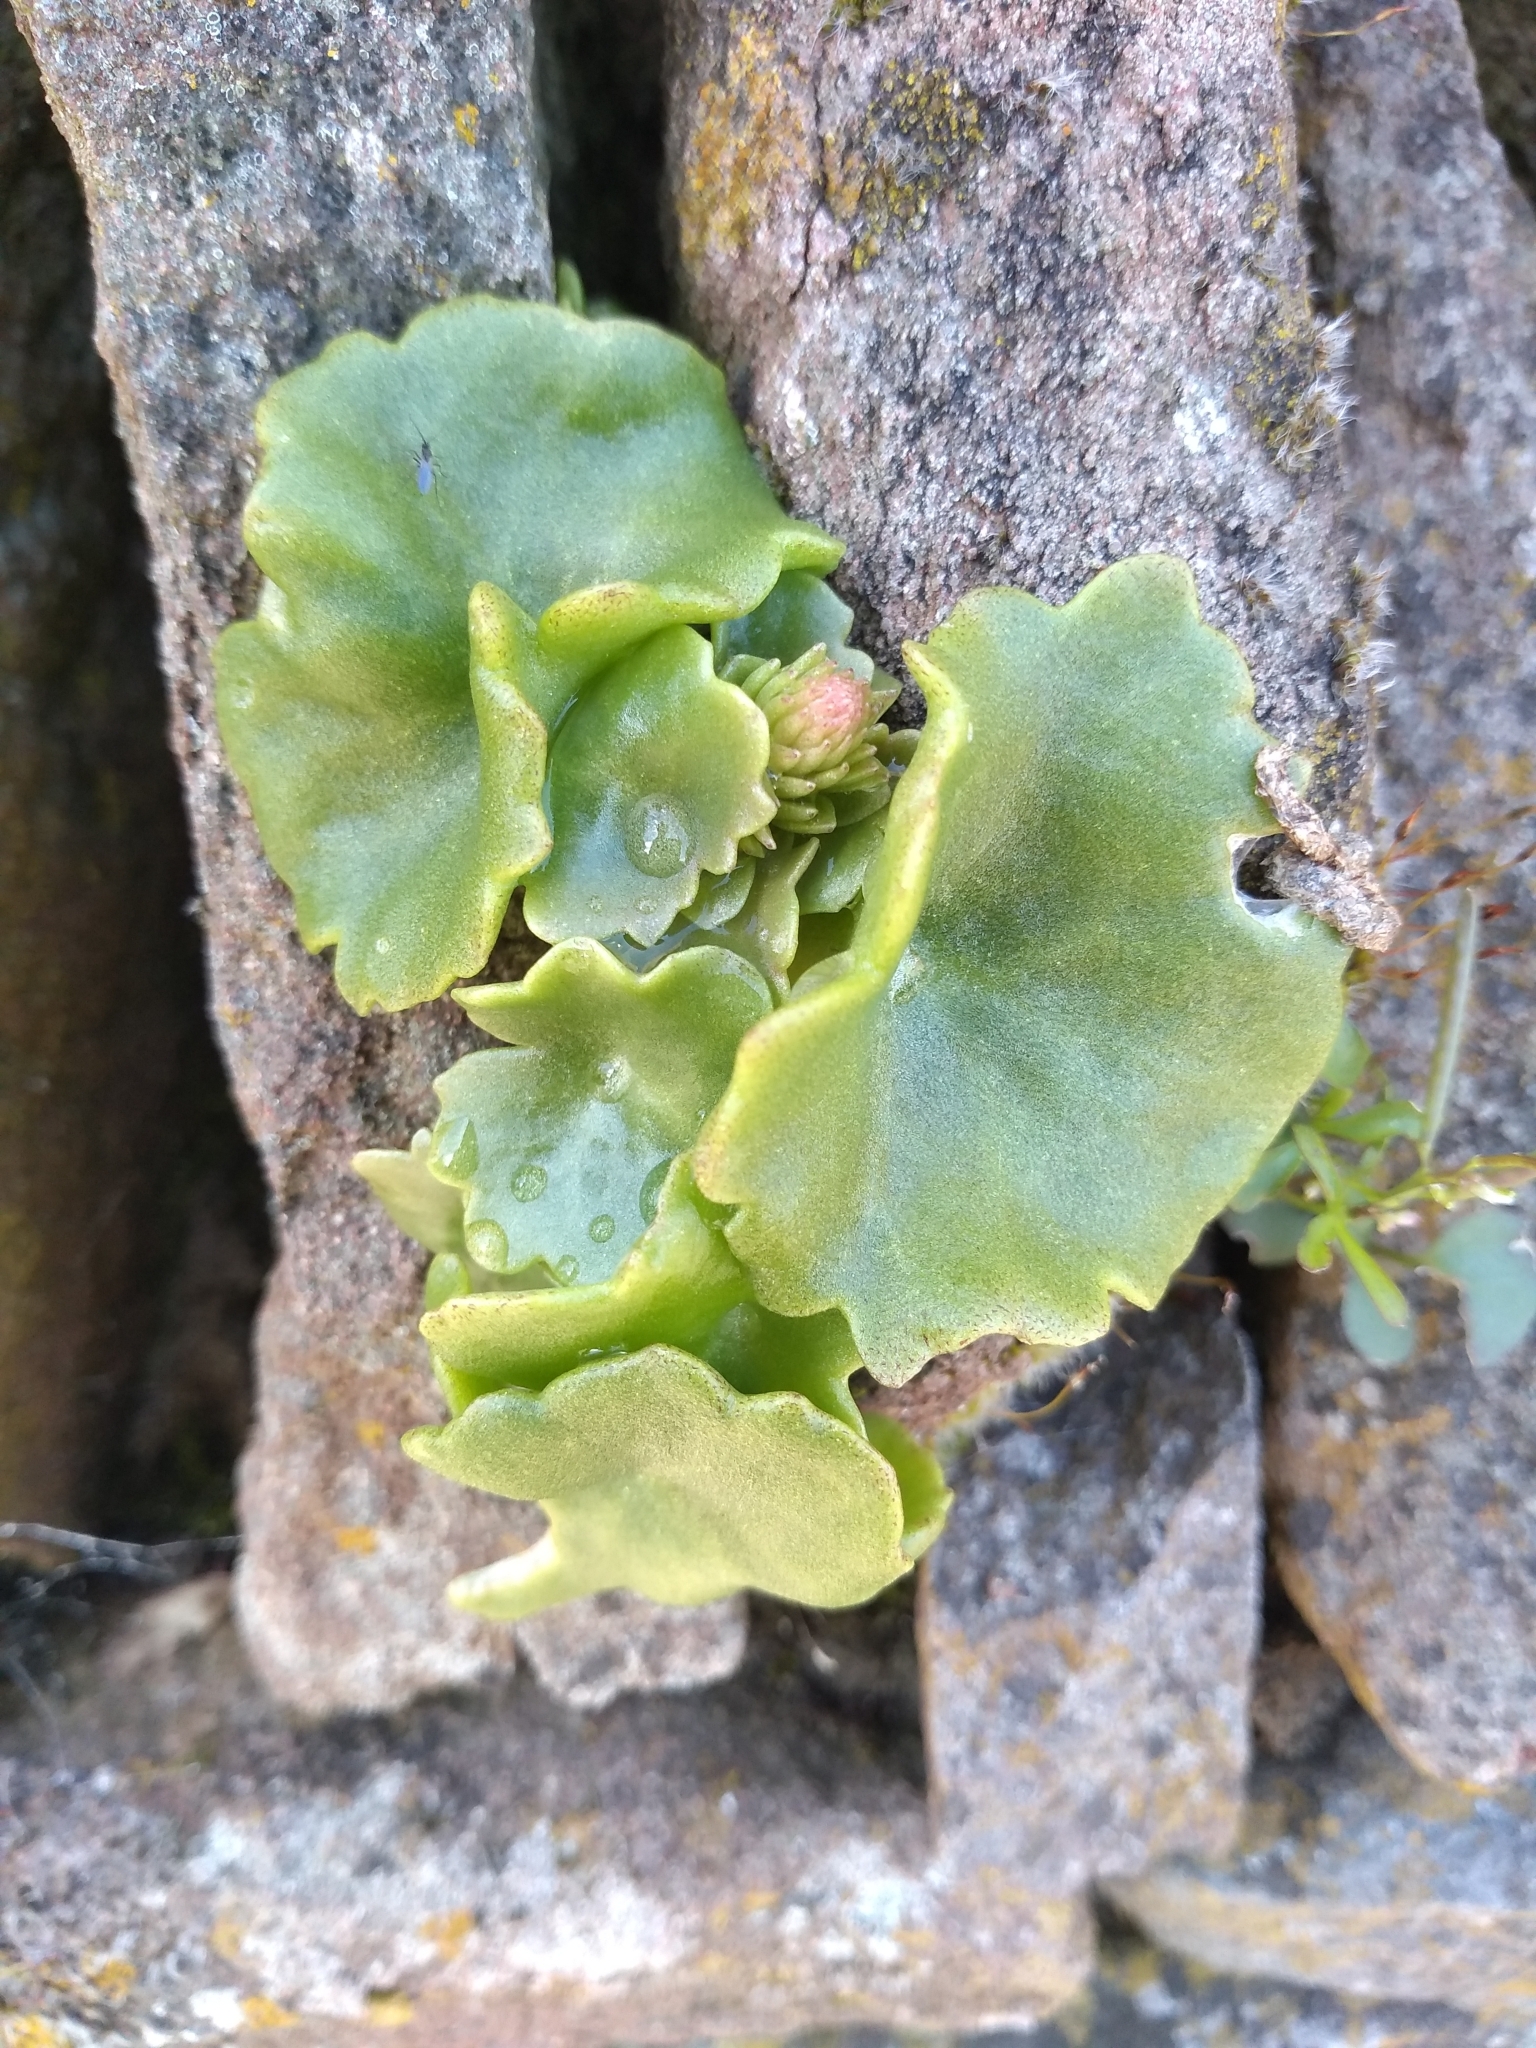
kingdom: Plantae
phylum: Tracheophyta
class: Magnoliopsida
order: Saxifragales
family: Crassulaceae
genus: Umbilicus
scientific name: Umbilicus rupestris
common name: Navelwort
